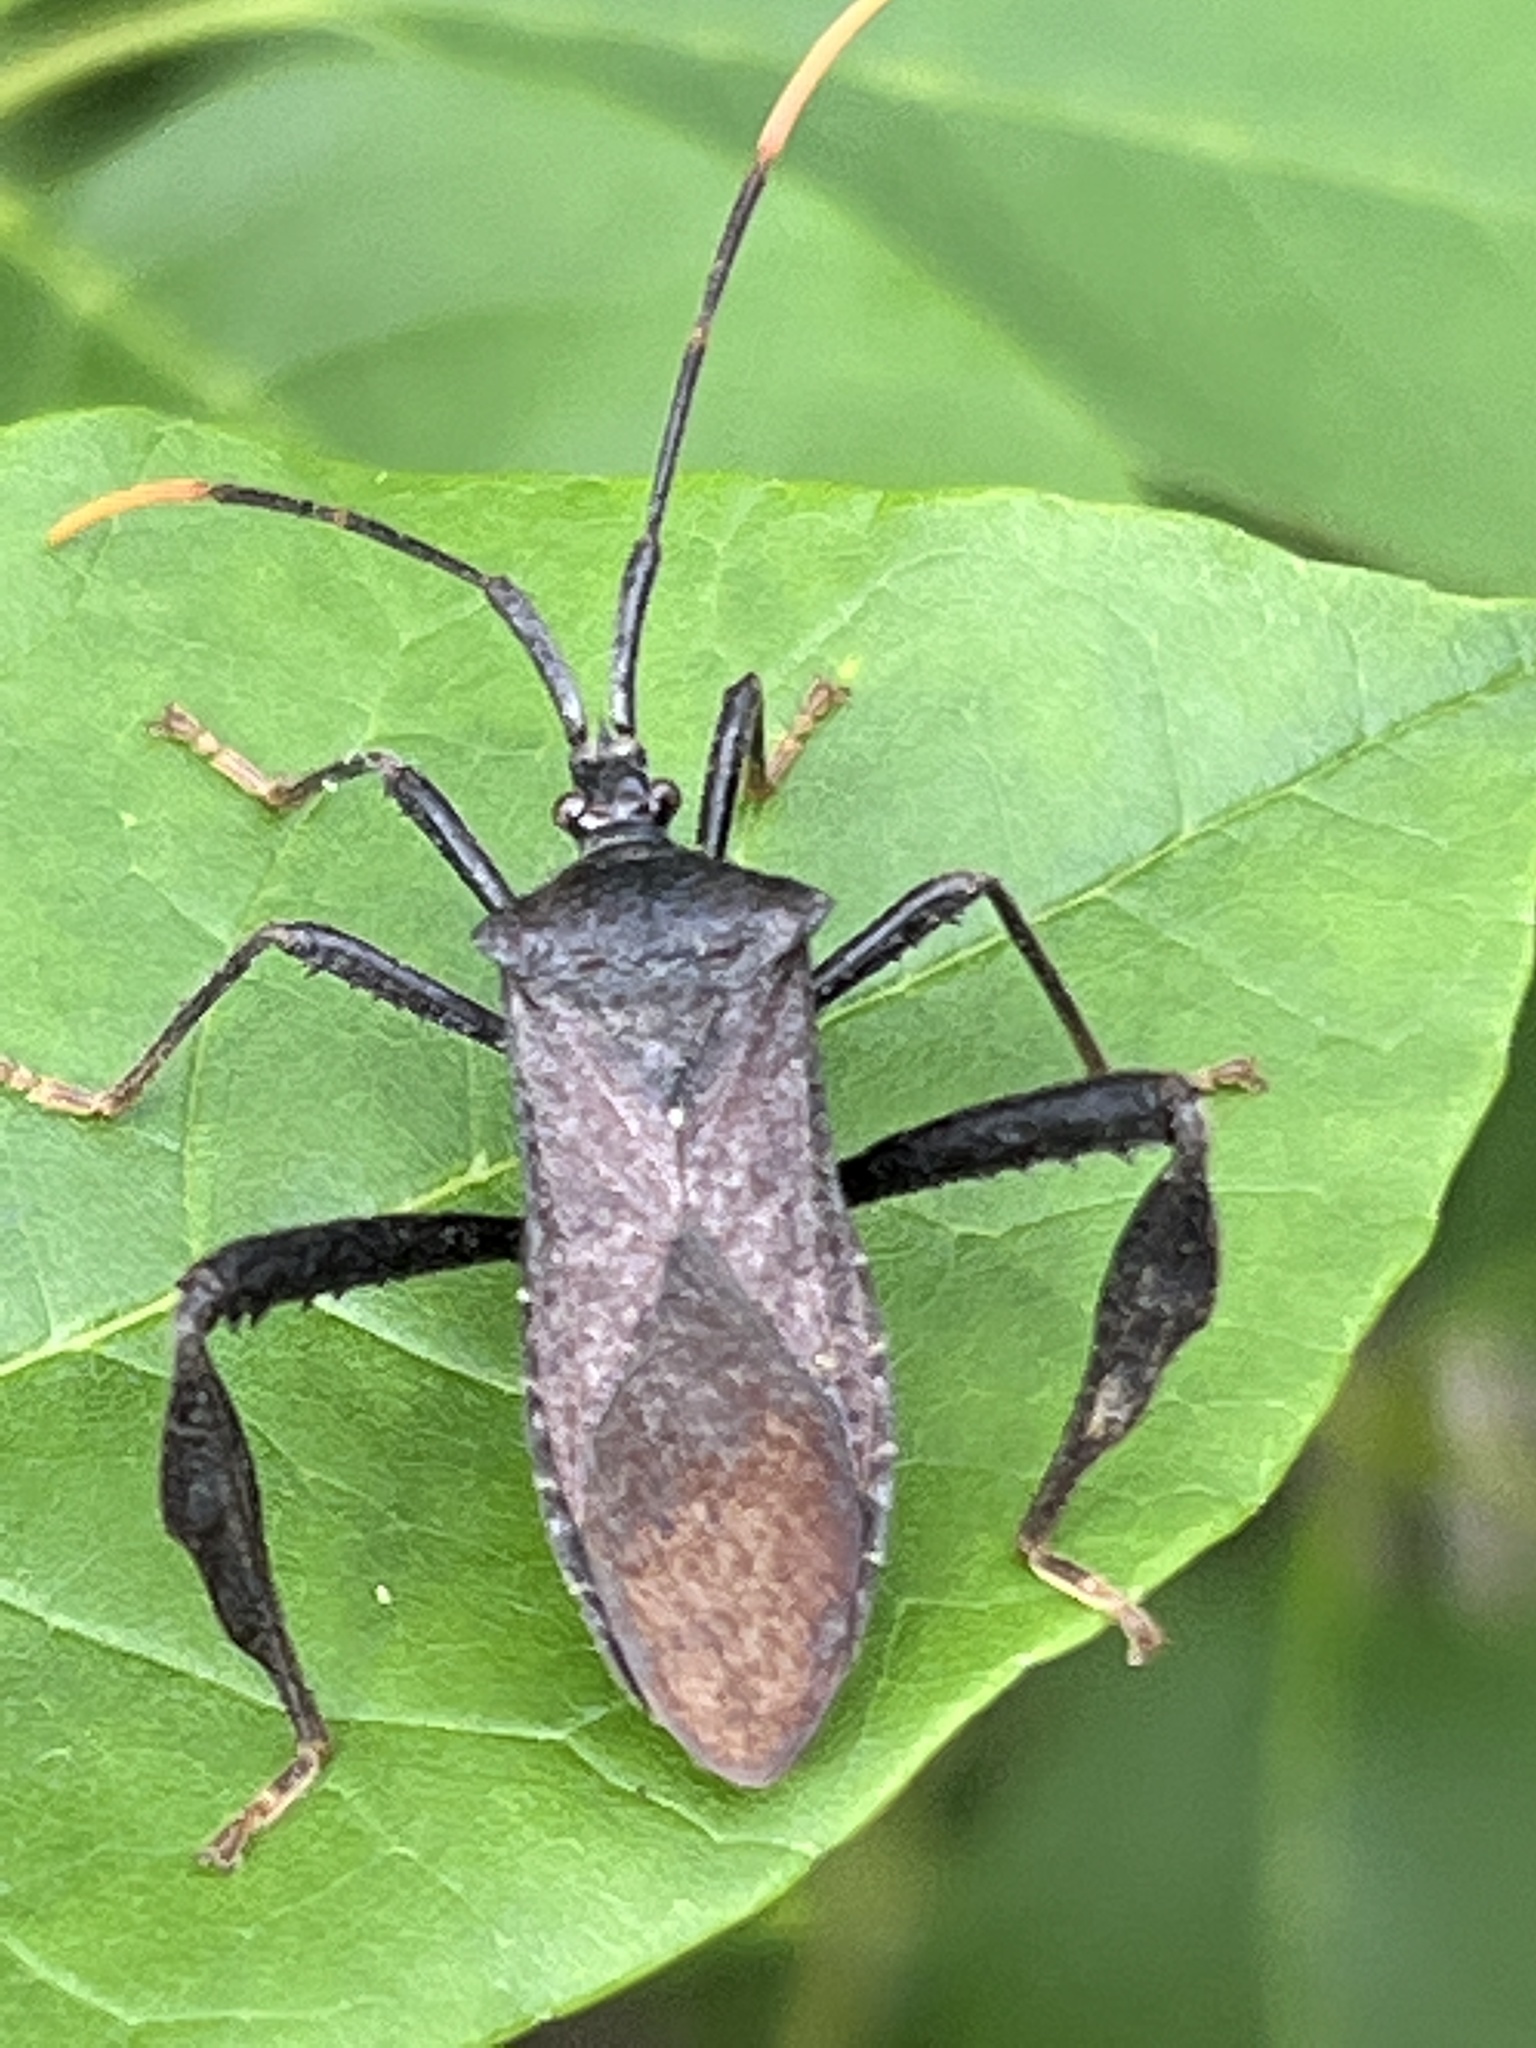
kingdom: Animalia
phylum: Arthropoda
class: Insecta
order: Hemiptera
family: Coreidae
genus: Acanthocephala
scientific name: Acanthocephala terminalis
